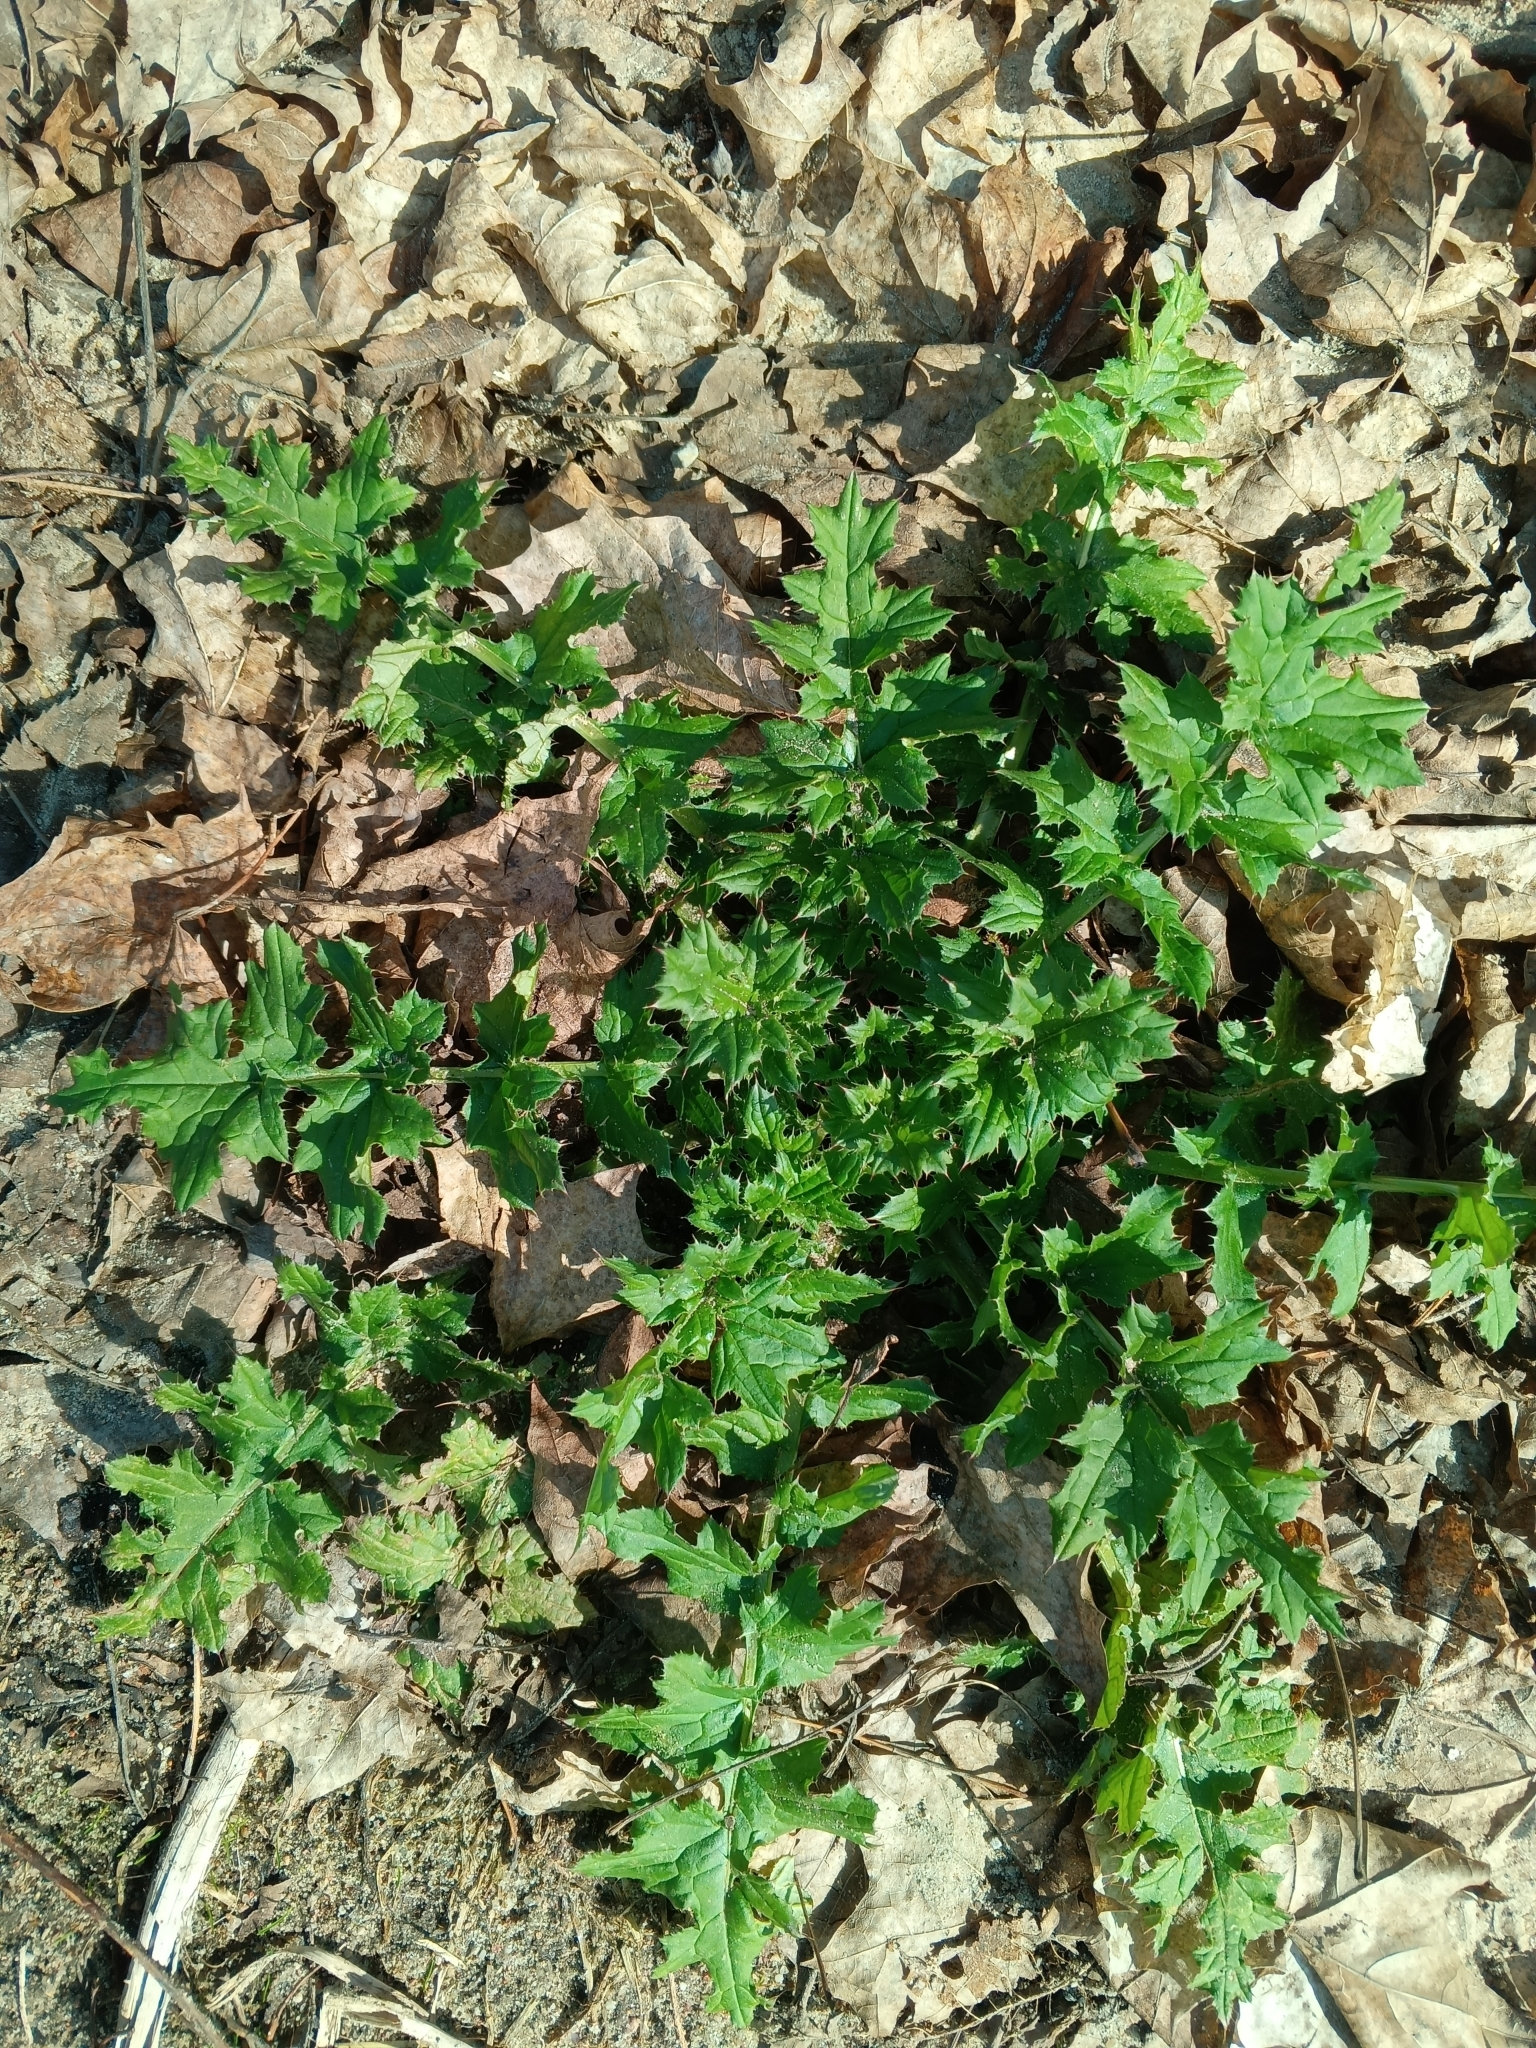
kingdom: Plantae
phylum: Tracheophyta
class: Magnoliopsida
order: Asterales
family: Asteraceae
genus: Carduus
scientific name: Carduus crispus
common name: Welted thistle
